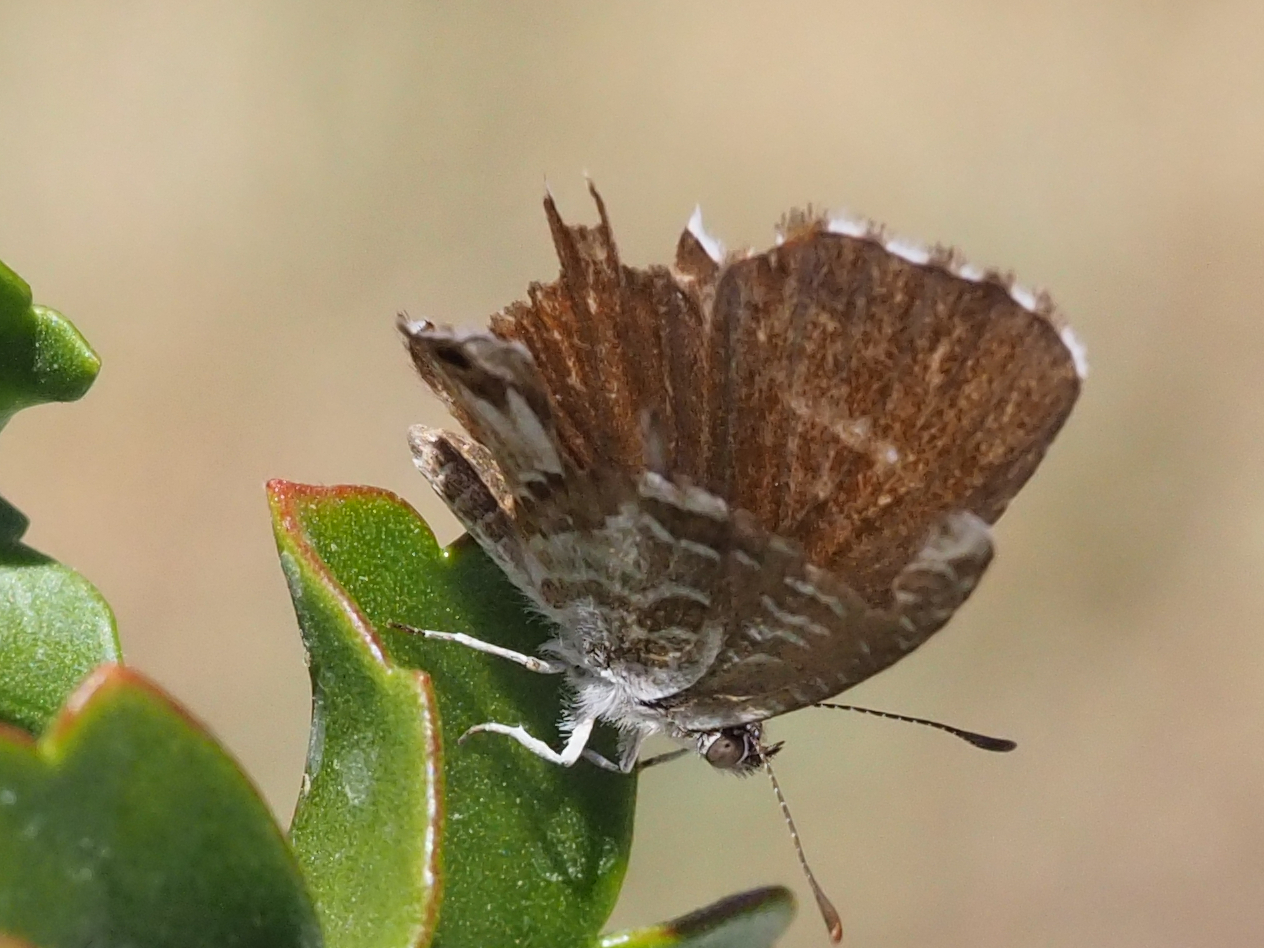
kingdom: Animalia
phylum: Arthropoda
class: Insecta
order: Lepidoptera
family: Lycaenidae
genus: Cacyreus
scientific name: Cacyreus marshalli
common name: Geranium bronze
